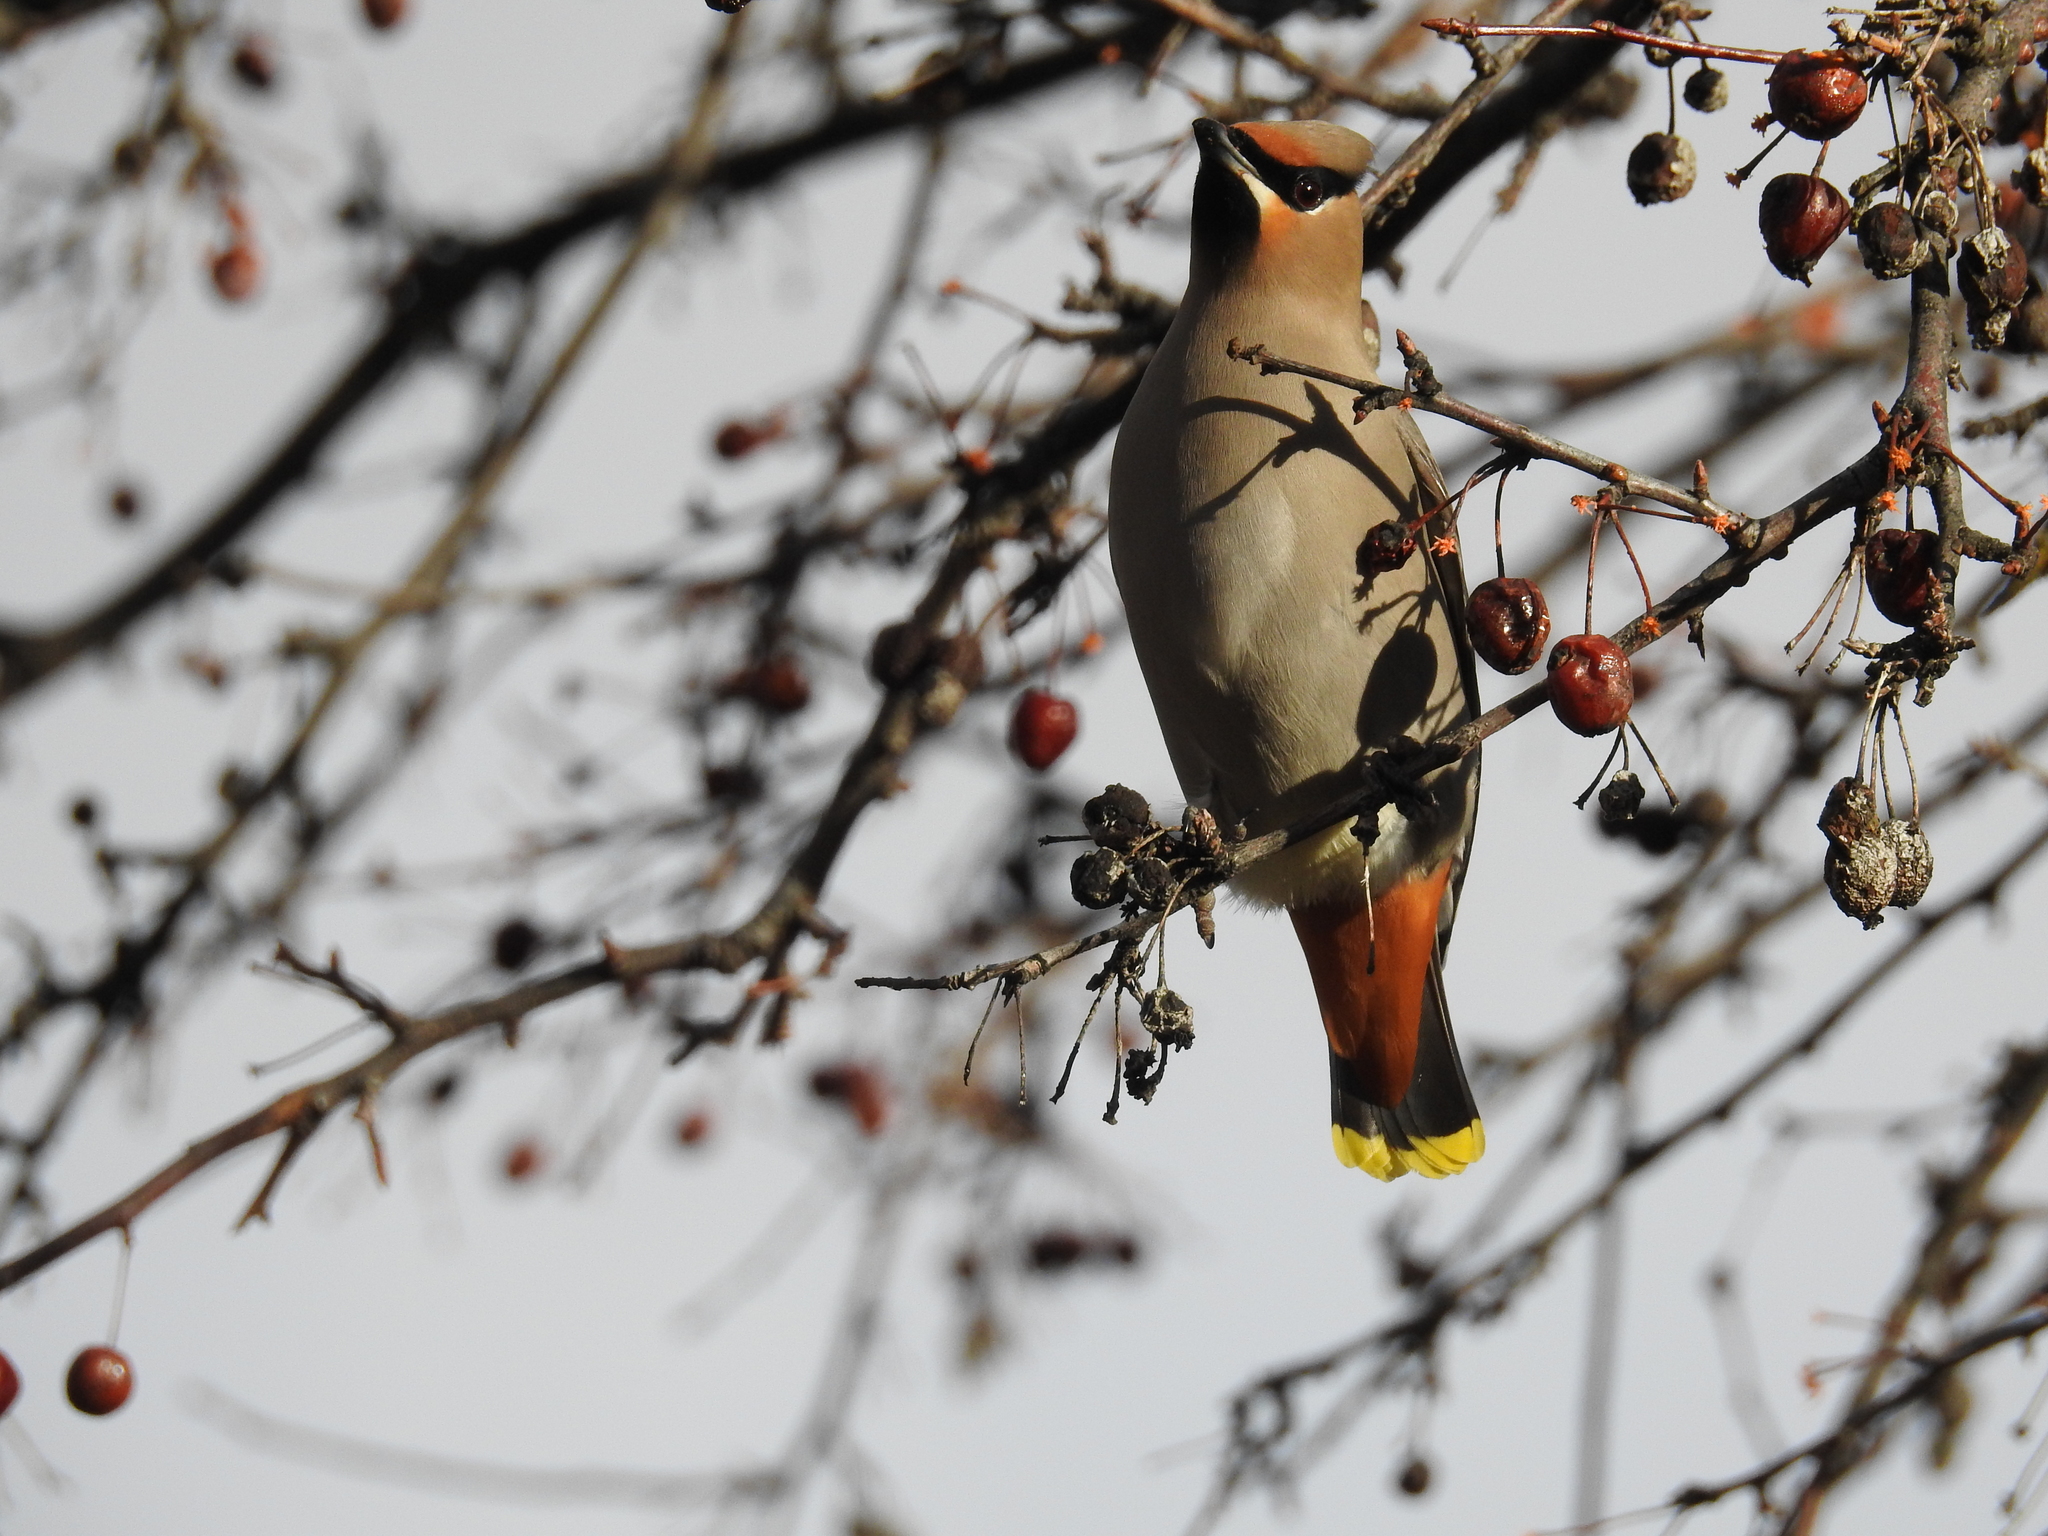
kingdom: Animalia
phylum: Chordata
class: Aves
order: Passeriformes
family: Bombycillidae
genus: Bombycilla
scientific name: Bombycilla garrulus
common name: Bohemian waxwing
